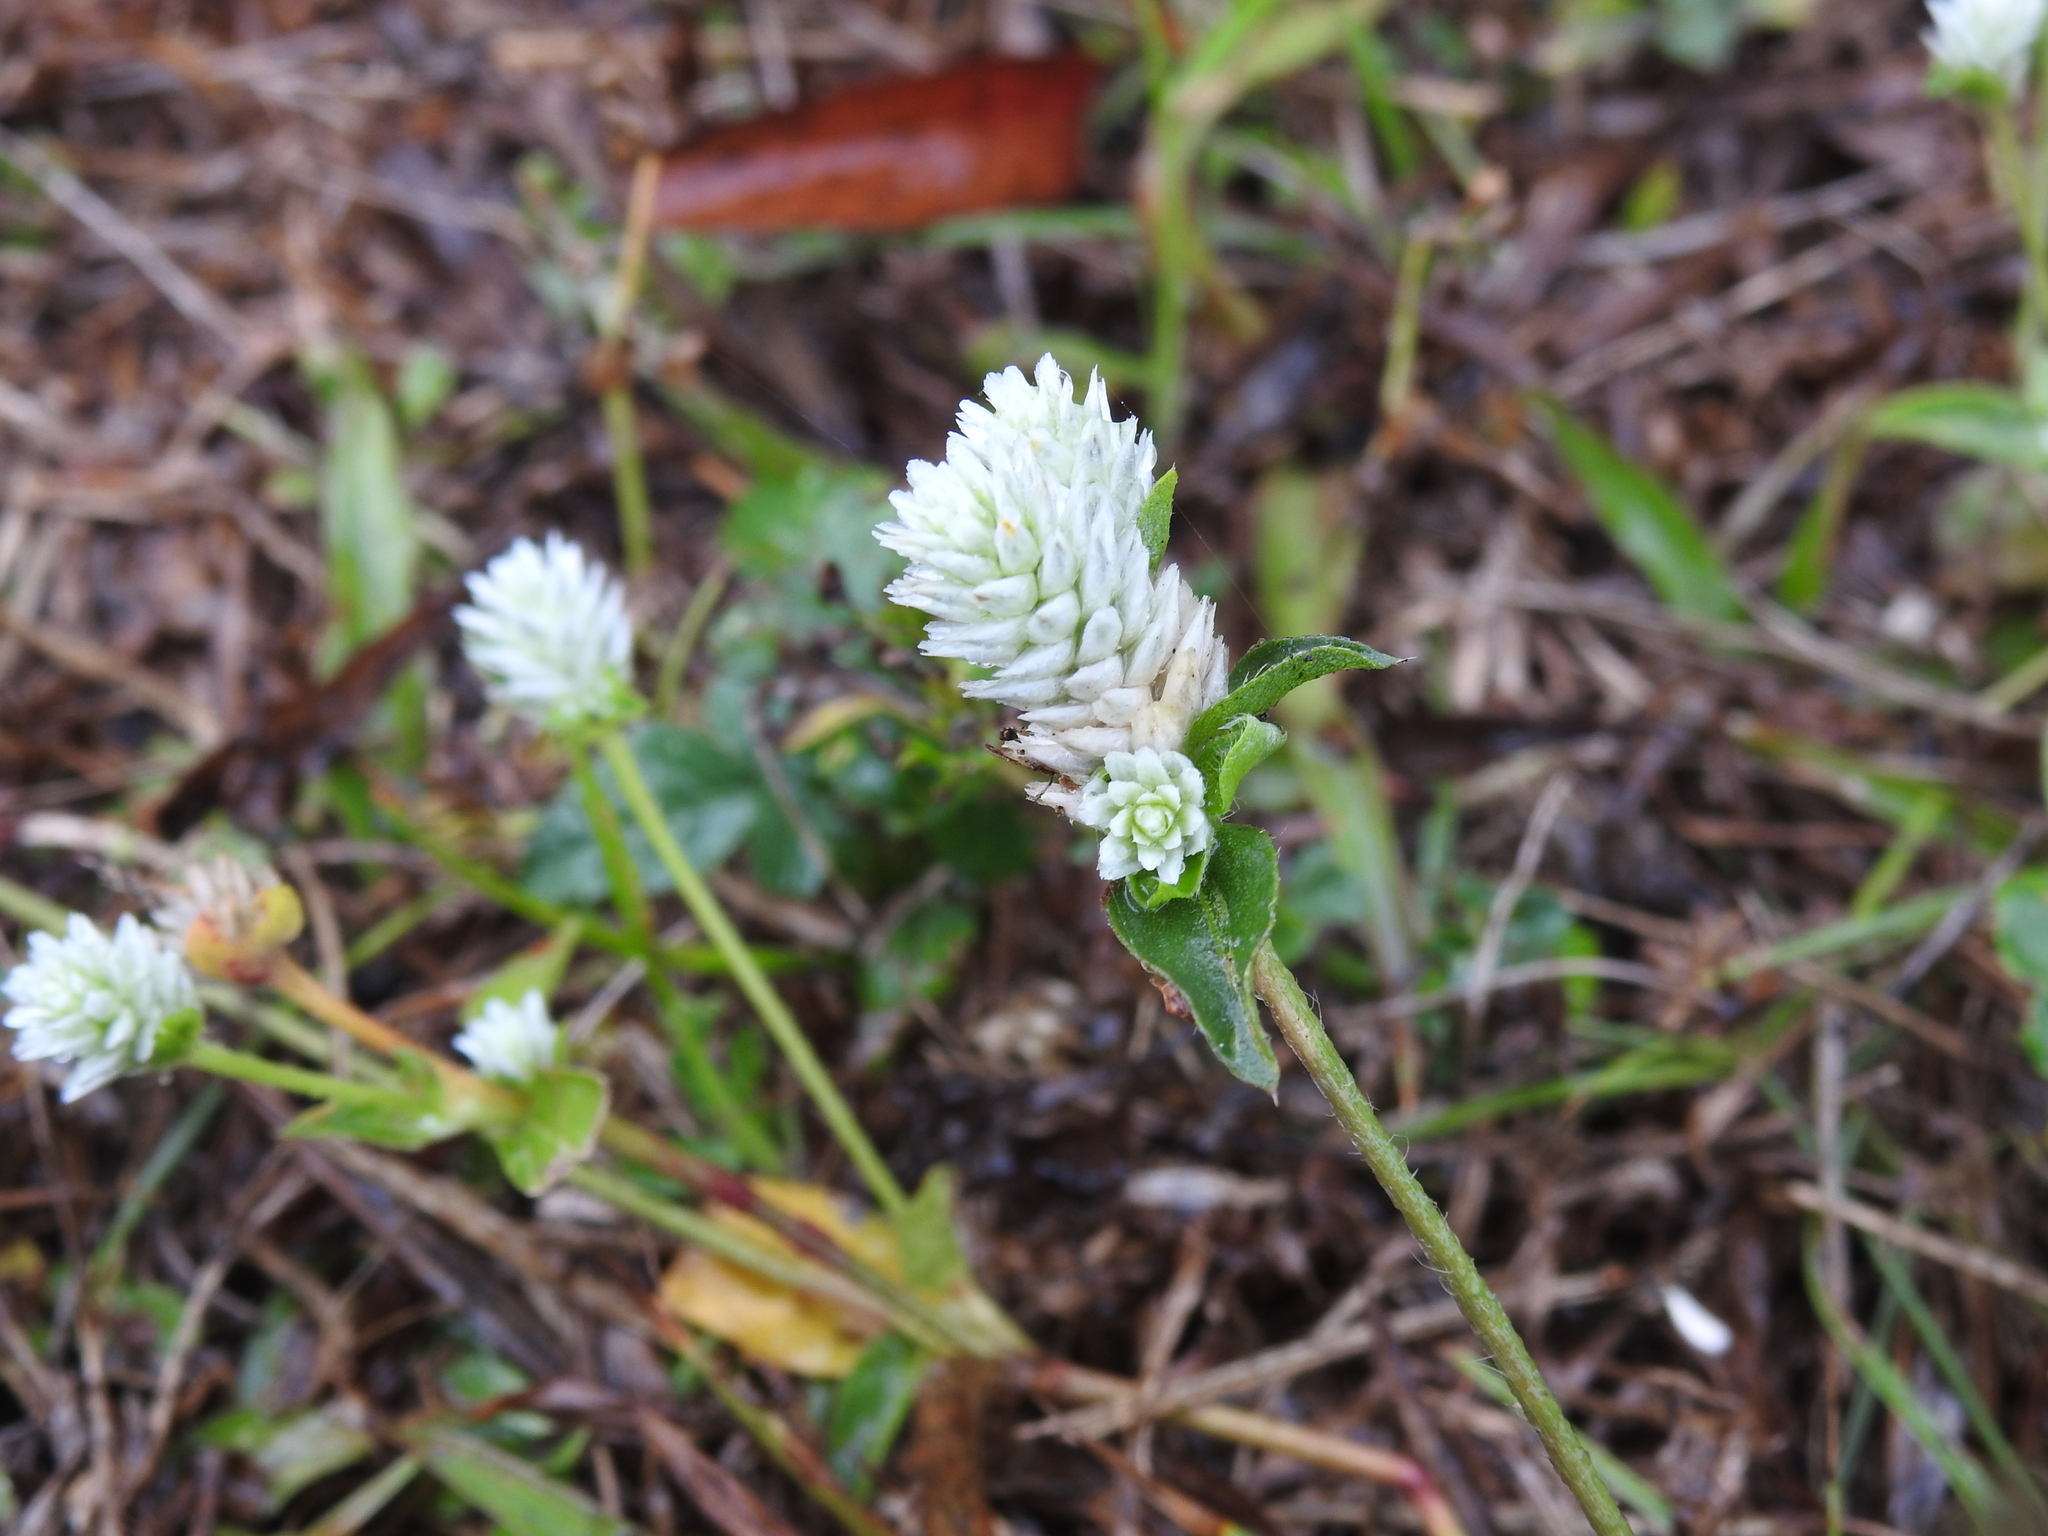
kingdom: Plantae
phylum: Tracheophyta
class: Magnoliopsida
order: Caryophyllales
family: Amaranthaceae
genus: Gomphrena
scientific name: Gomphrena serrata
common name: Arrasa con todo
